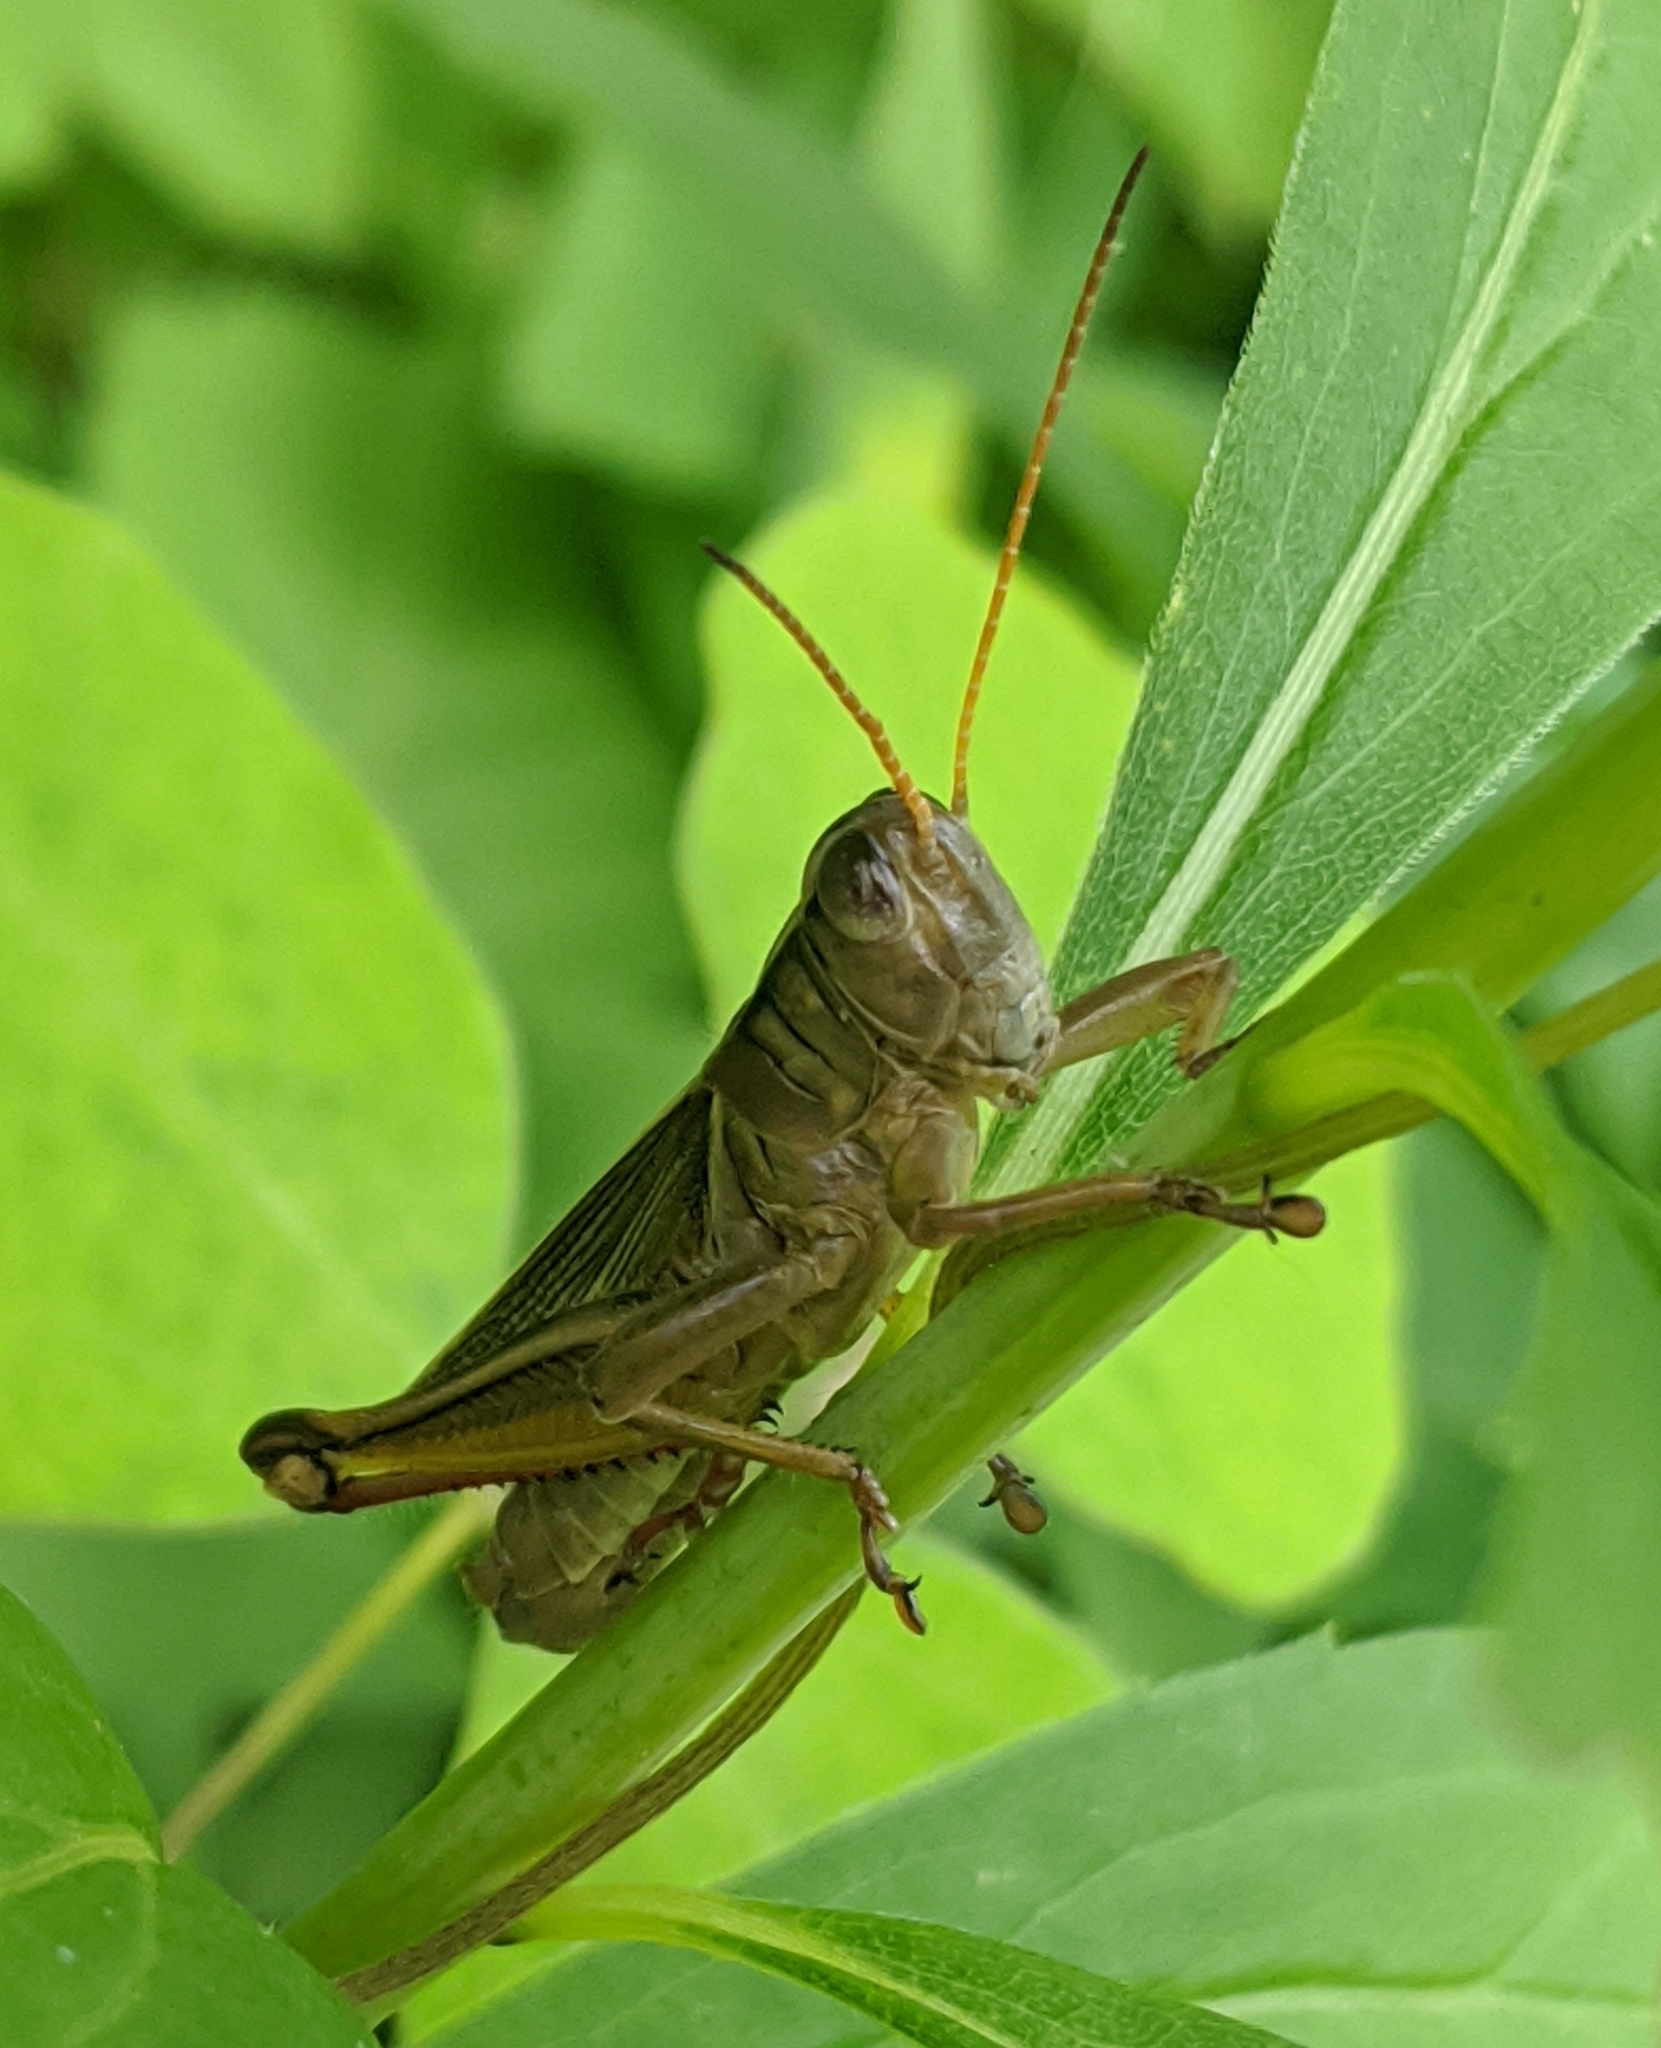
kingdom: Animalia
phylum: Arthropoda
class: Insecta
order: Orthoptera
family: Acrididae
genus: Melanoplus
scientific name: Melanoplus bivittatus
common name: Two-striped grasshopper
